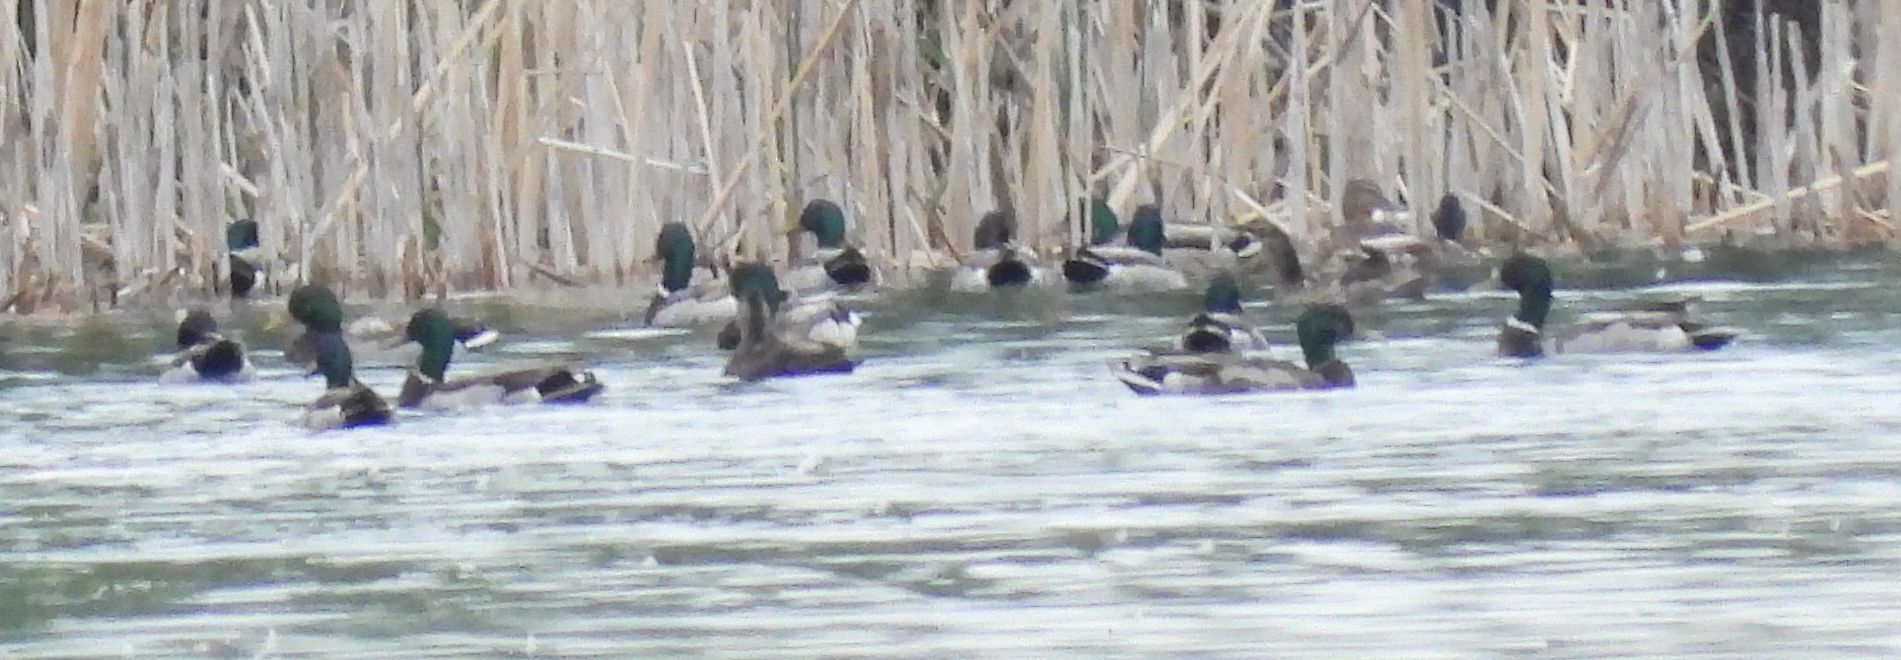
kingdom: Animalia
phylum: Chordata
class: Aves
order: Anseriformes
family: Anatidae
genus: Anas
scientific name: Anas platyrhynchos
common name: Mallard
